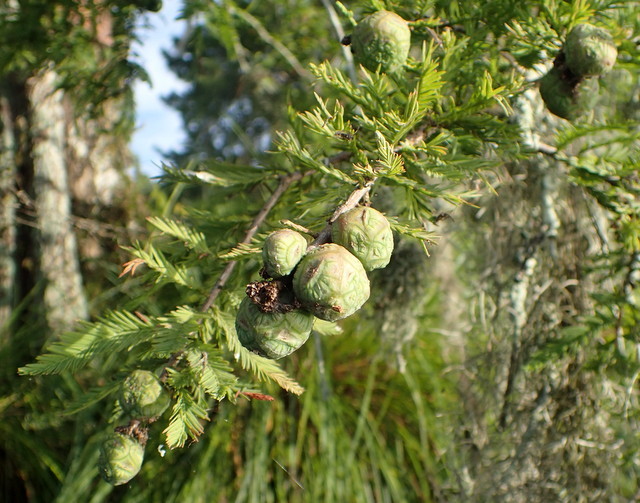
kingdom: Plantae
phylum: Tracheophyta
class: Pinopsida
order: Pinales
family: Cupressaceae
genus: Taxodium
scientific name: Taxodium distichum
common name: Bald cypress
